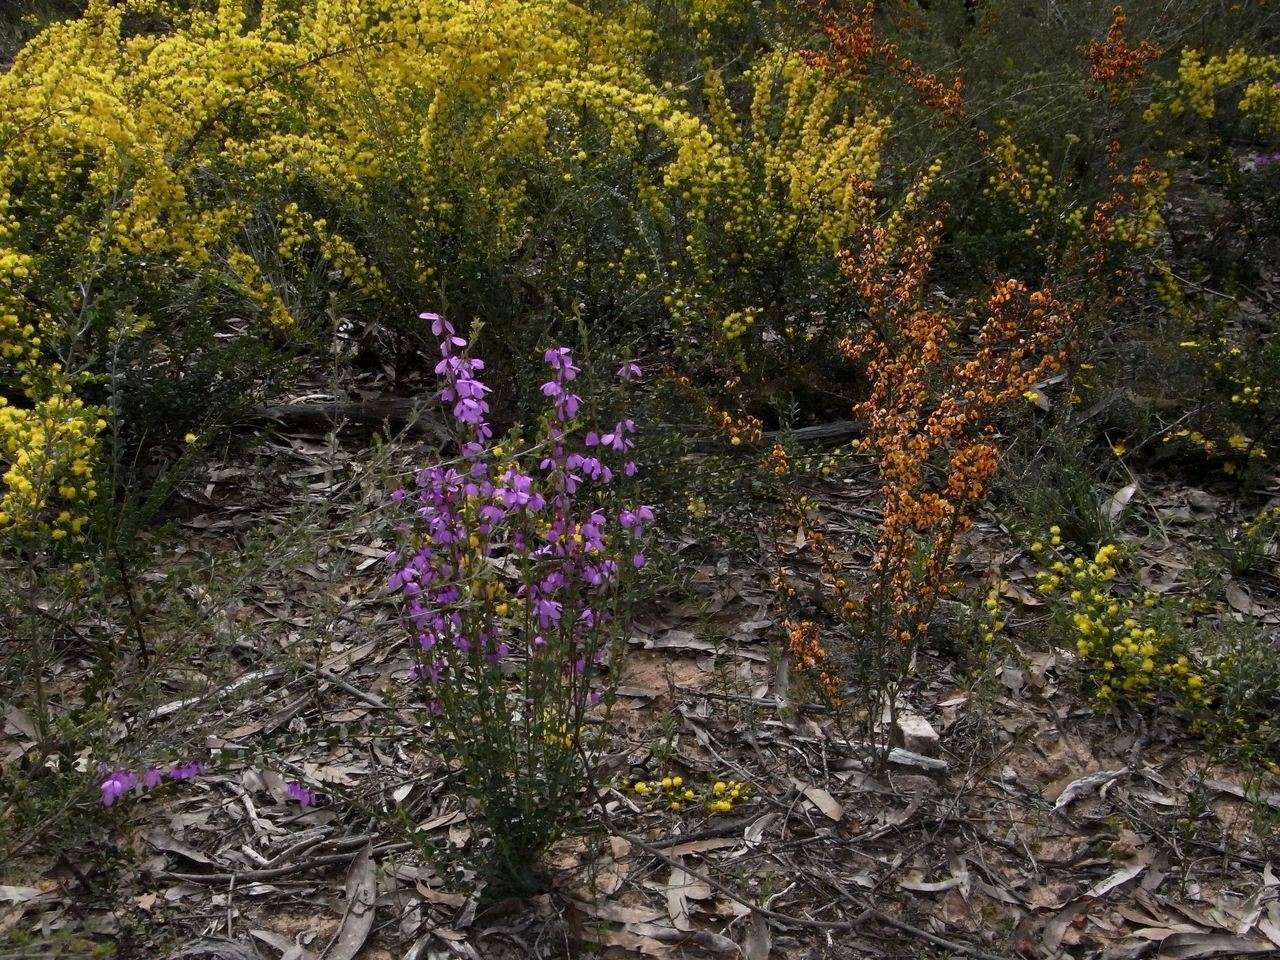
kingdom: Plantae
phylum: Tracheophyta
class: Magnoliopsida
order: Oxalidales
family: Elaeocarpaceae
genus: Tetratheca
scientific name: Tetratheca ciliata
